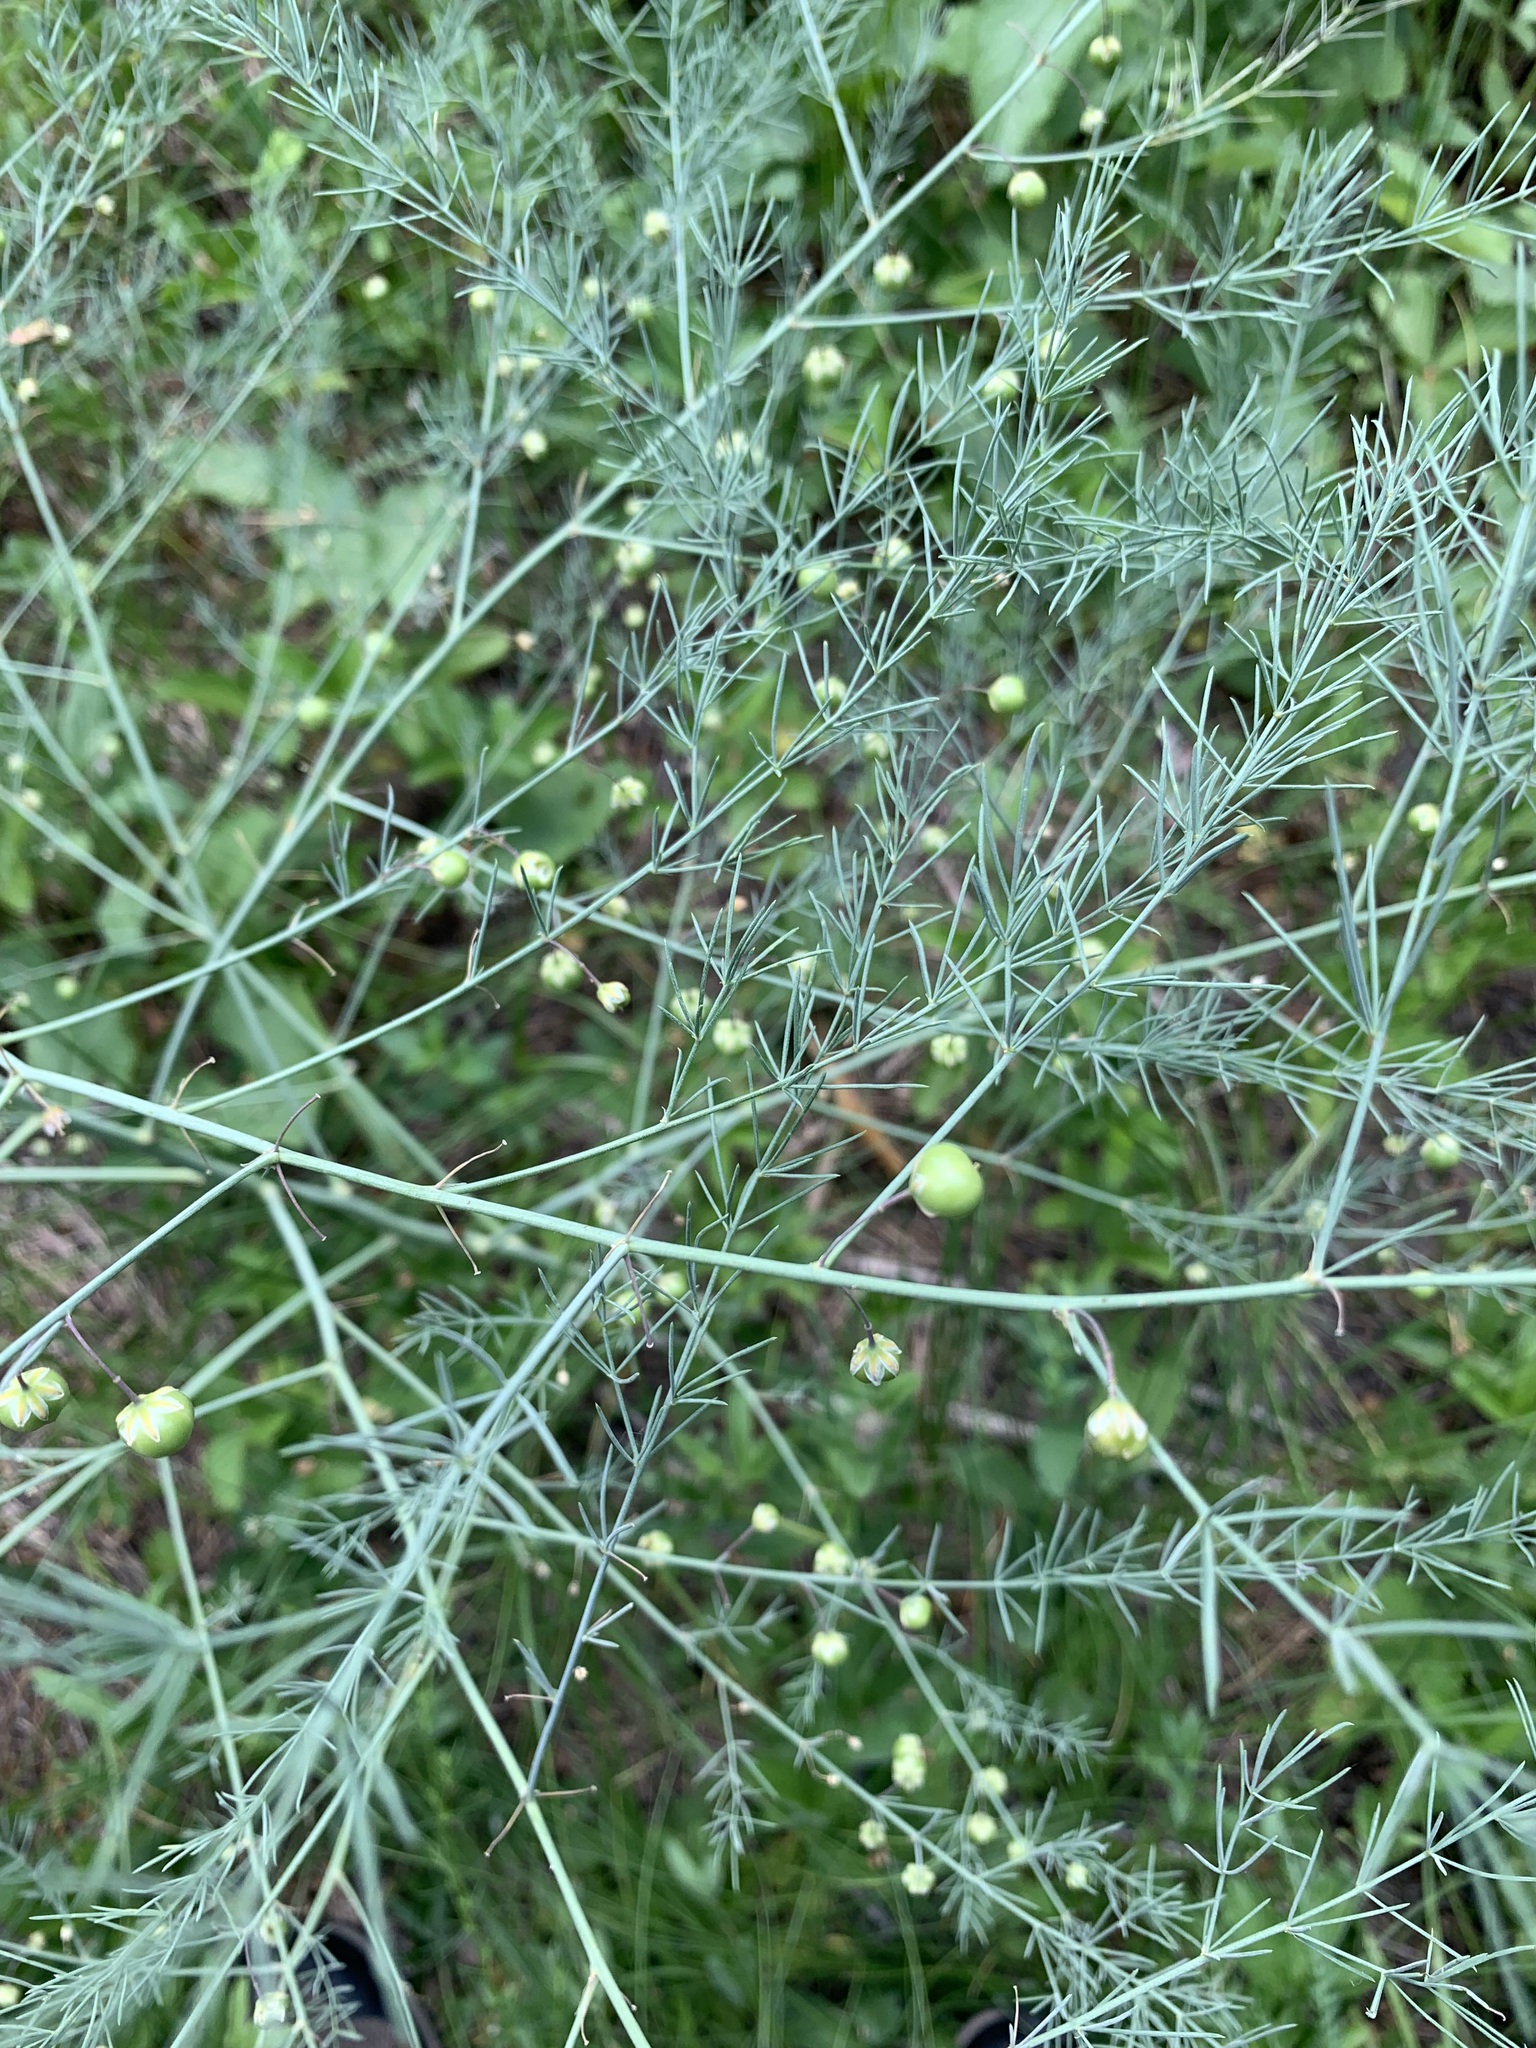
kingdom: Plantae
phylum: Tracheophyta
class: Liliopsida
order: Asparagales
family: Asparagaceae
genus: Asparagus
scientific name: Asparagus officinalis
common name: Garden asparagus
